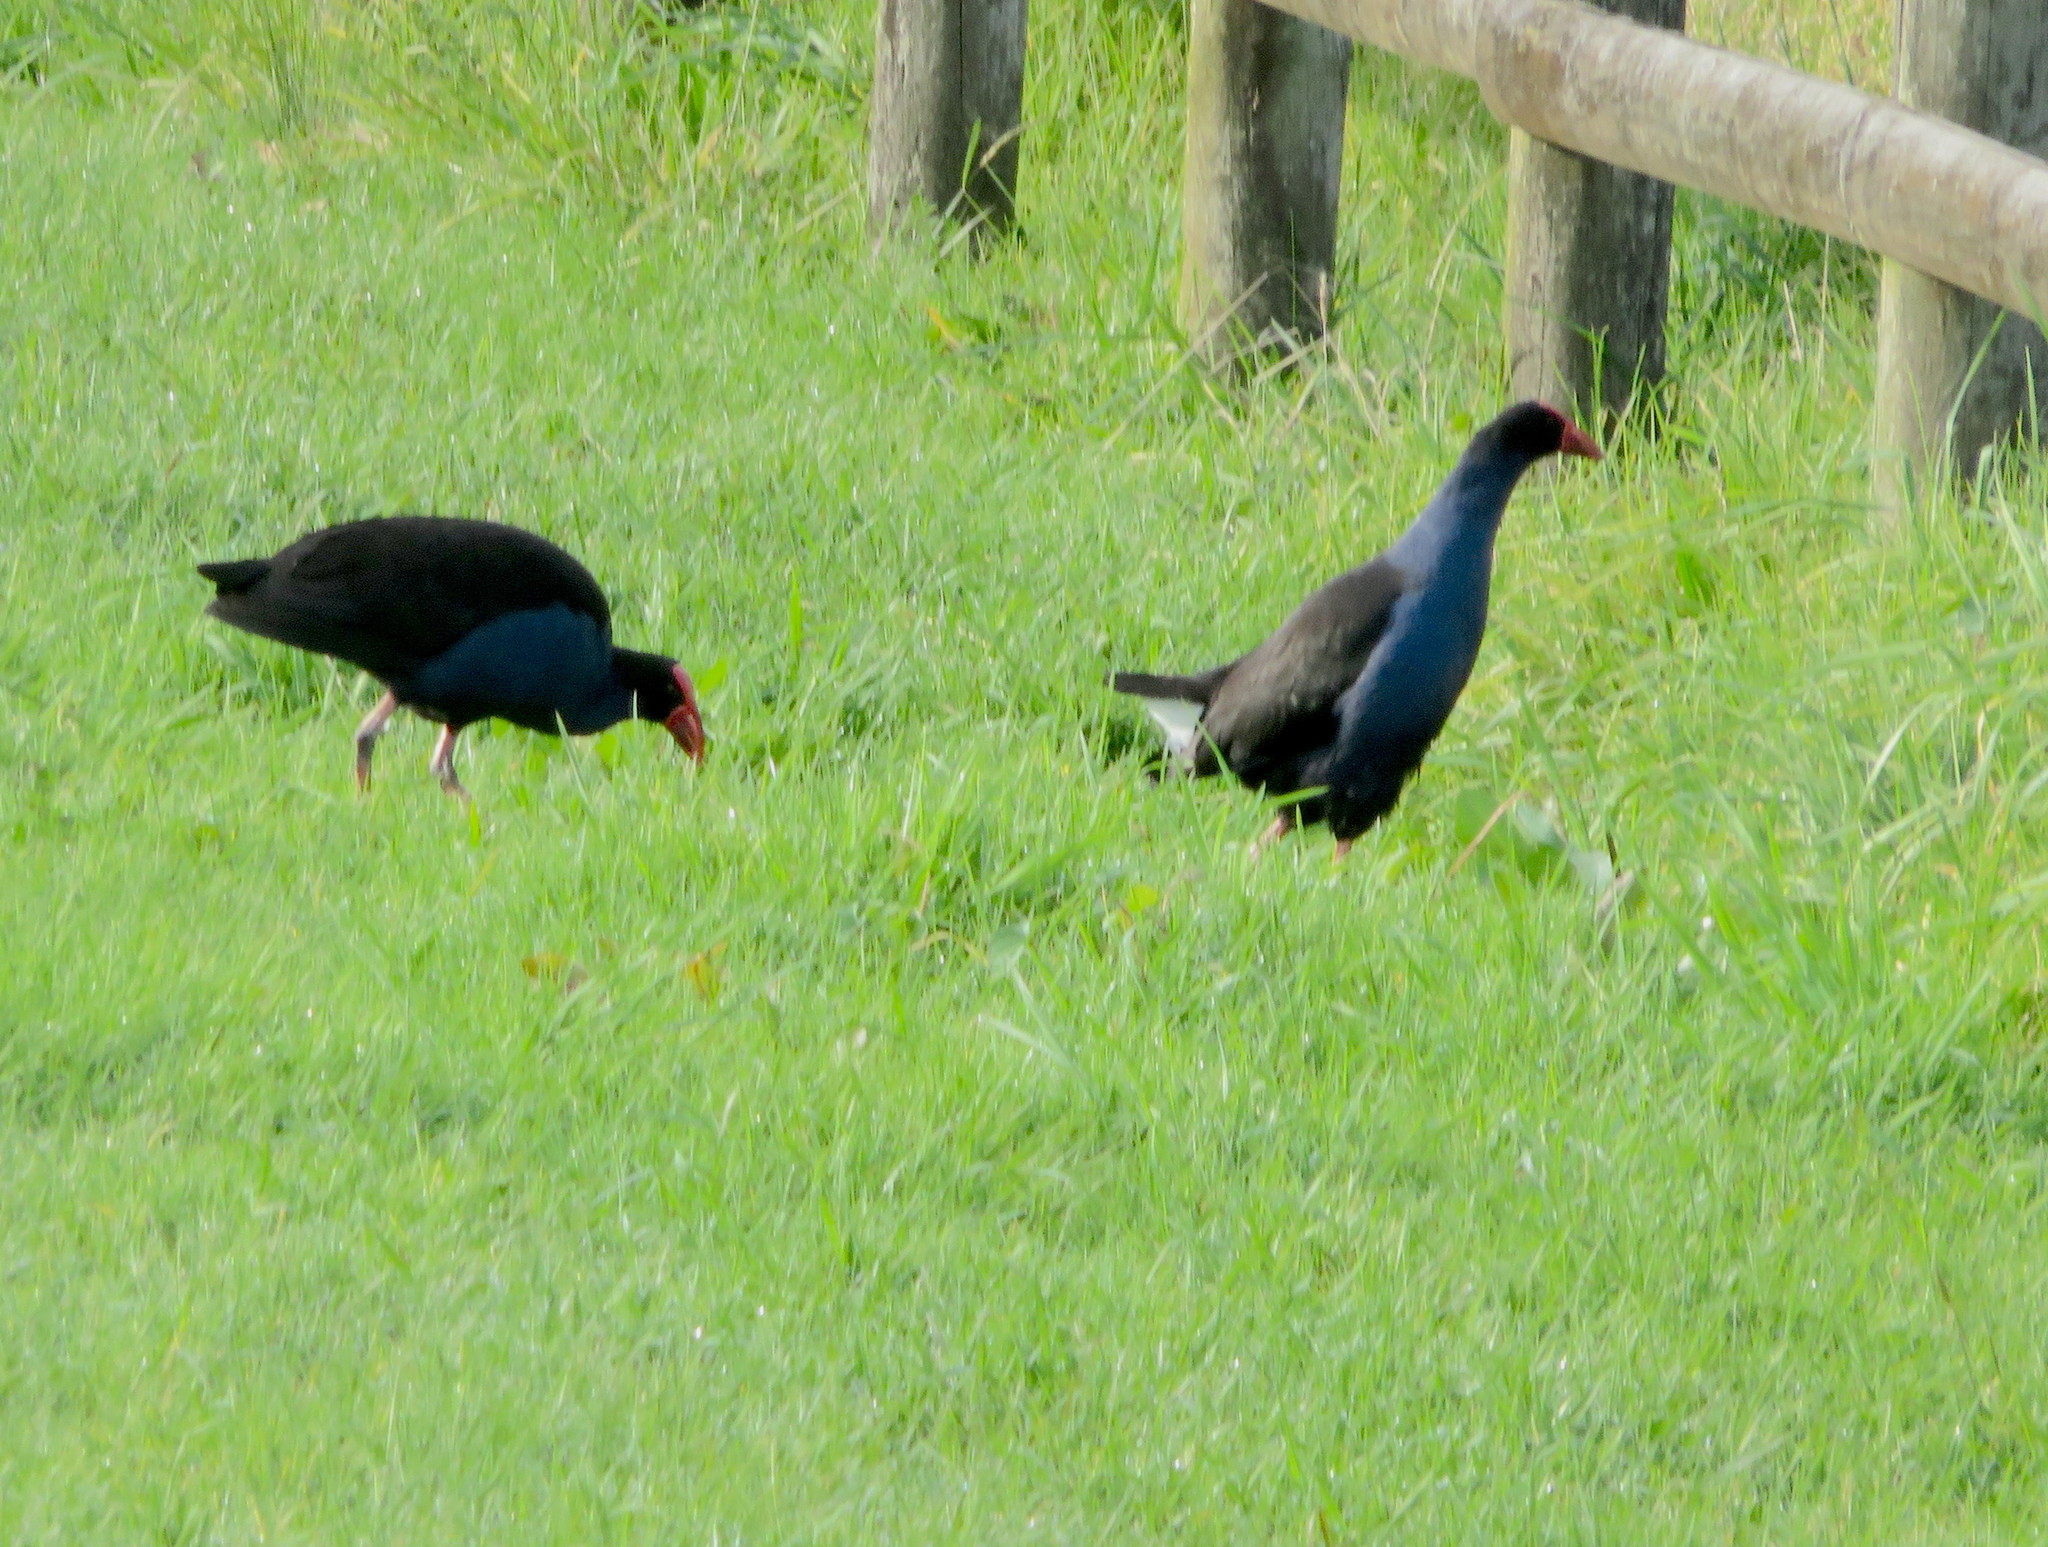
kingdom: Animalia
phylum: Chordata
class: Aves
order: Gruiformes
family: Rallidae
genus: Porphyrio
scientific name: Porphyrio melanotus
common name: Australasian swamphen
